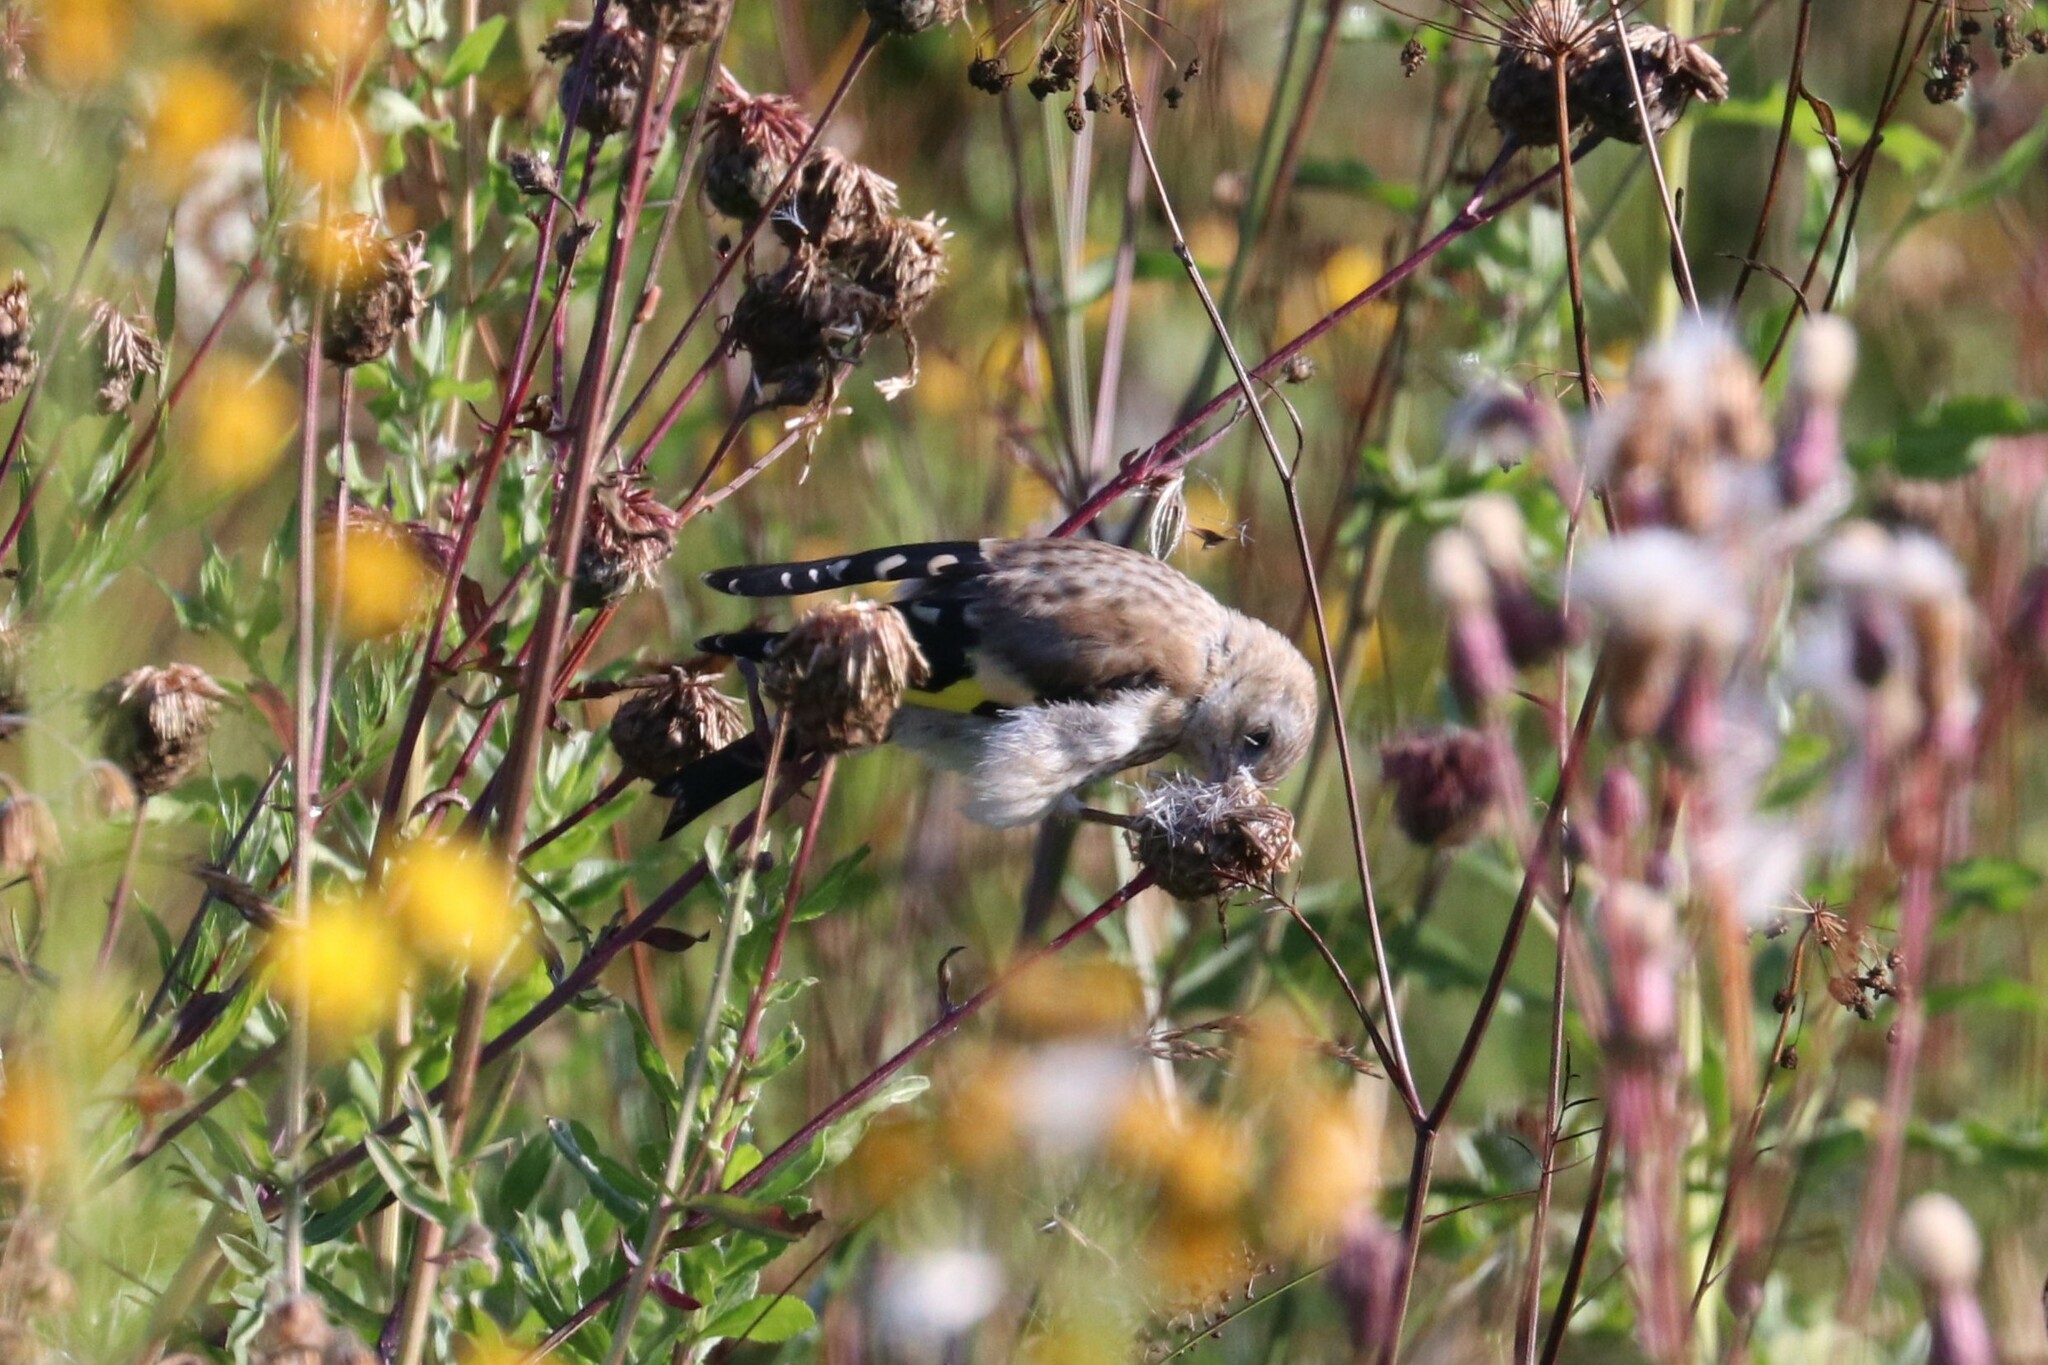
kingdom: Animalia
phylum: Chordata
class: Aves
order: Passeriformes
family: Fringillidae
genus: Carduelis
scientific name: Carduelis carduelis
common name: European goldfinch
